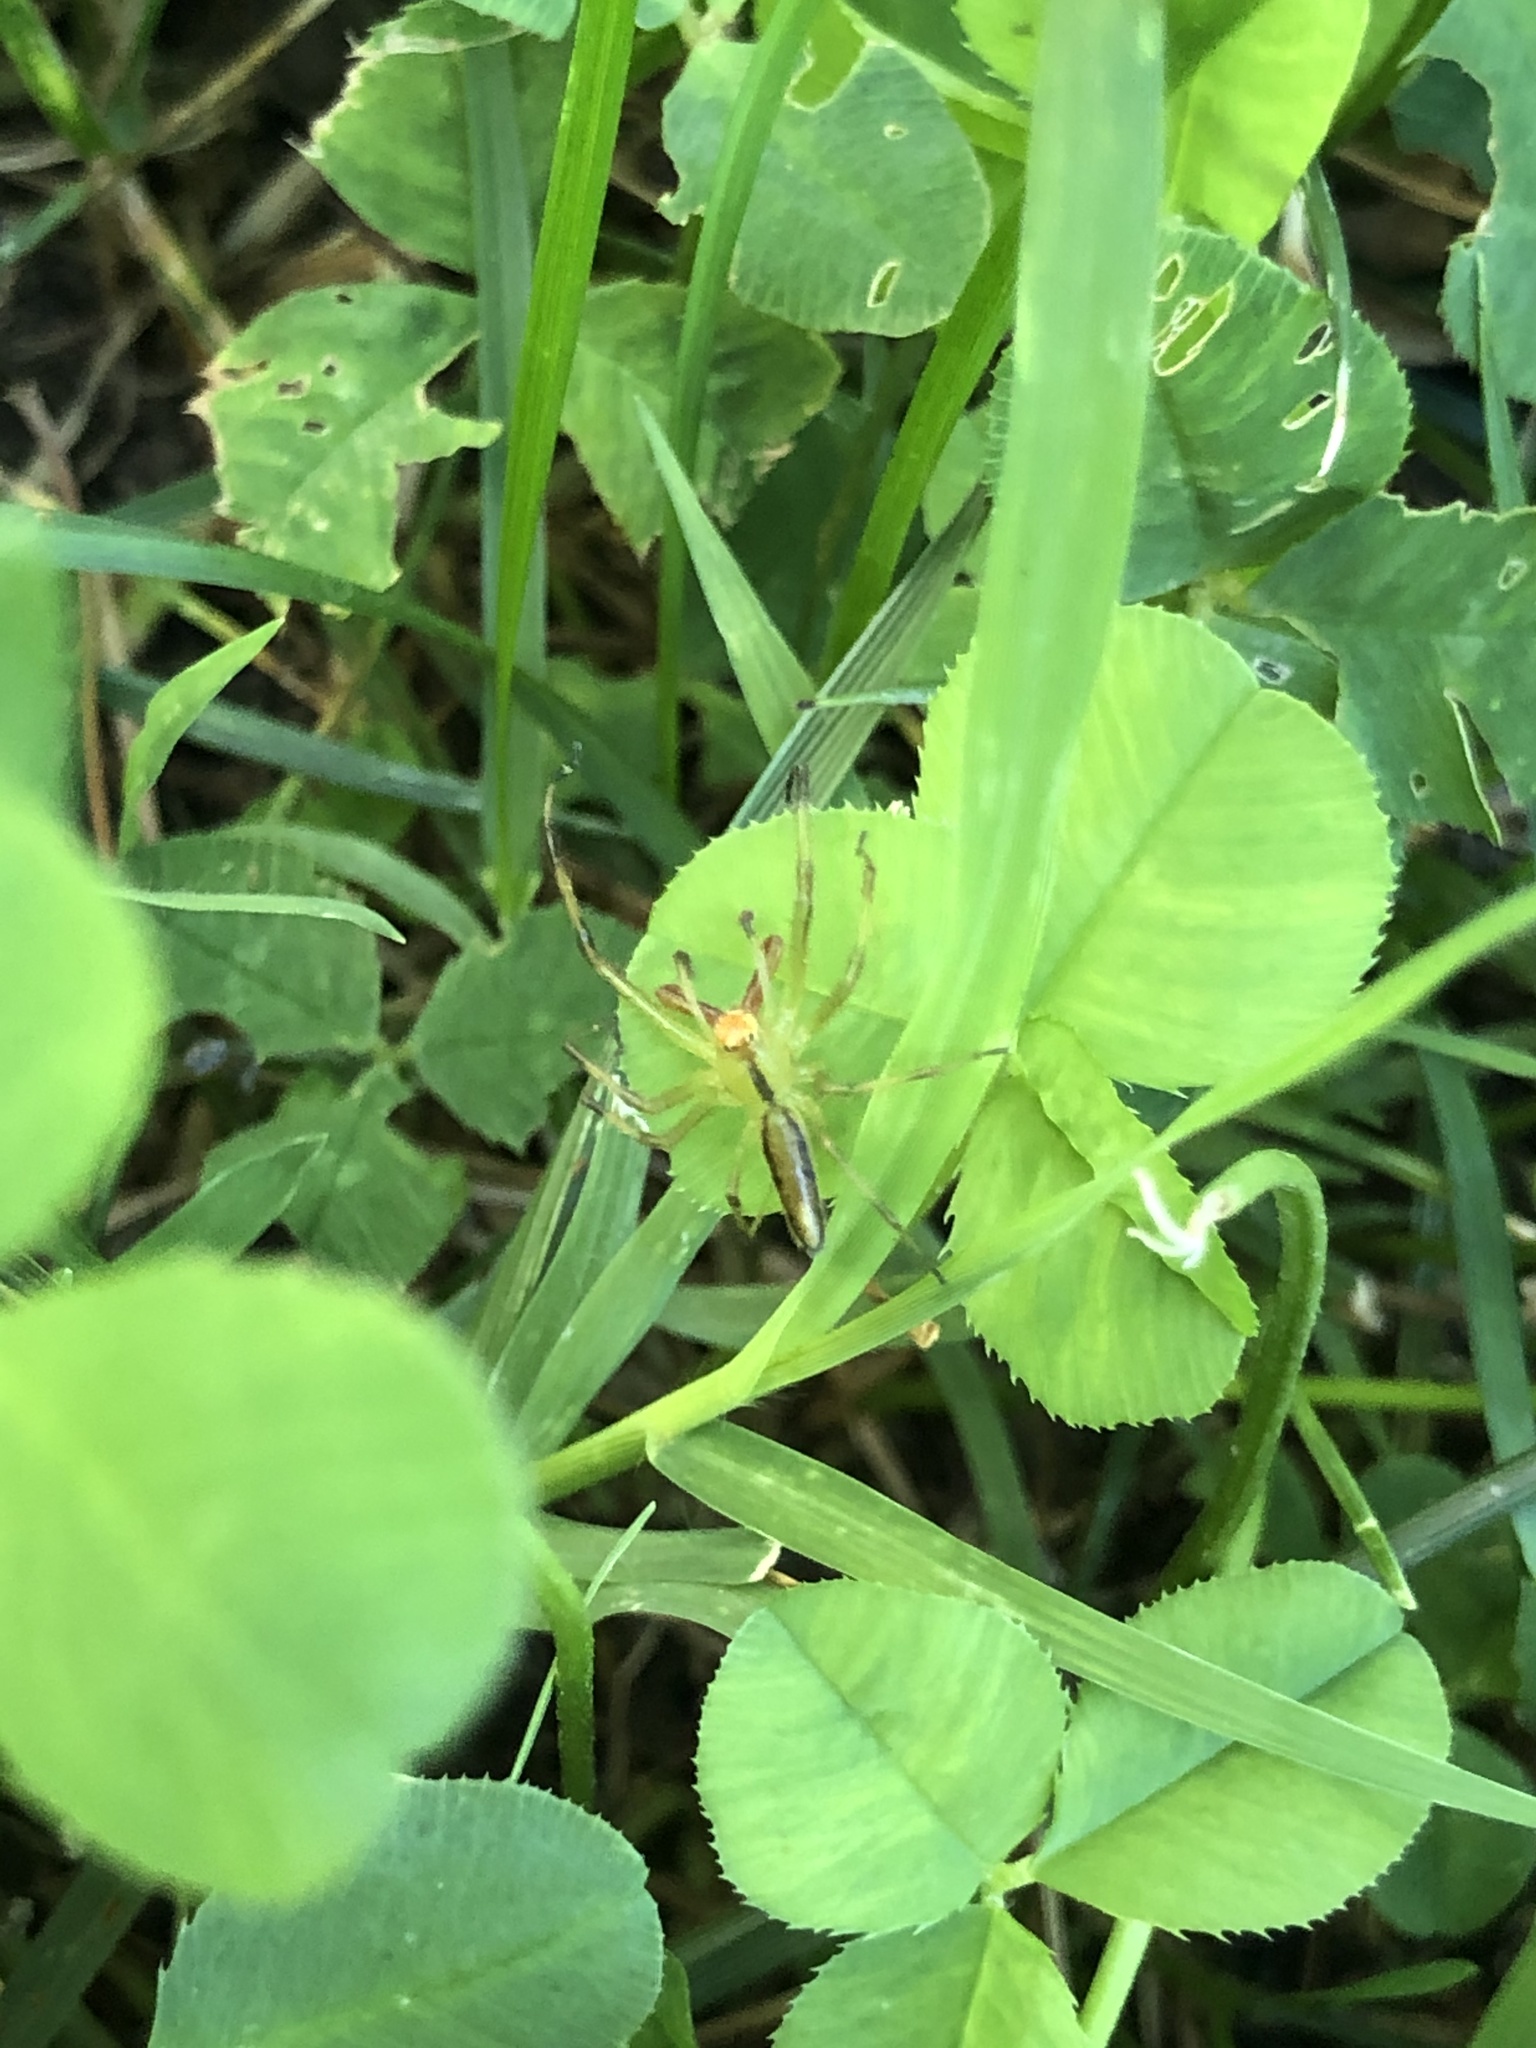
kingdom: Animalia
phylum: Arthropoda
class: Arachnida
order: Araneae
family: Salticidae
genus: Lyssomanes
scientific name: Lyssomanes viridis
